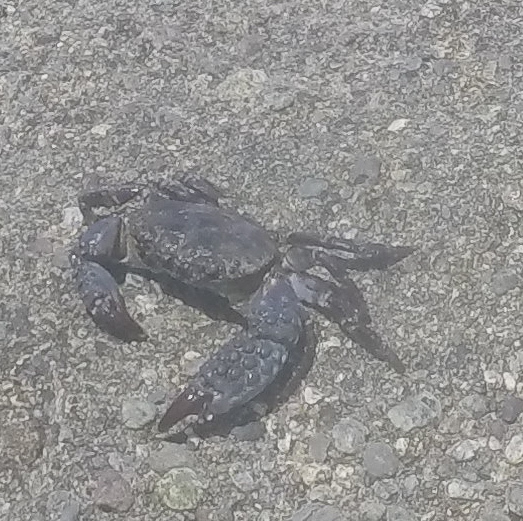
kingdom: Animalia
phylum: Arthropoda
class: Malacostraca
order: Decapoda
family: Eriphiidae
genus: Eriphia
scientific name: Eriphia squamata
